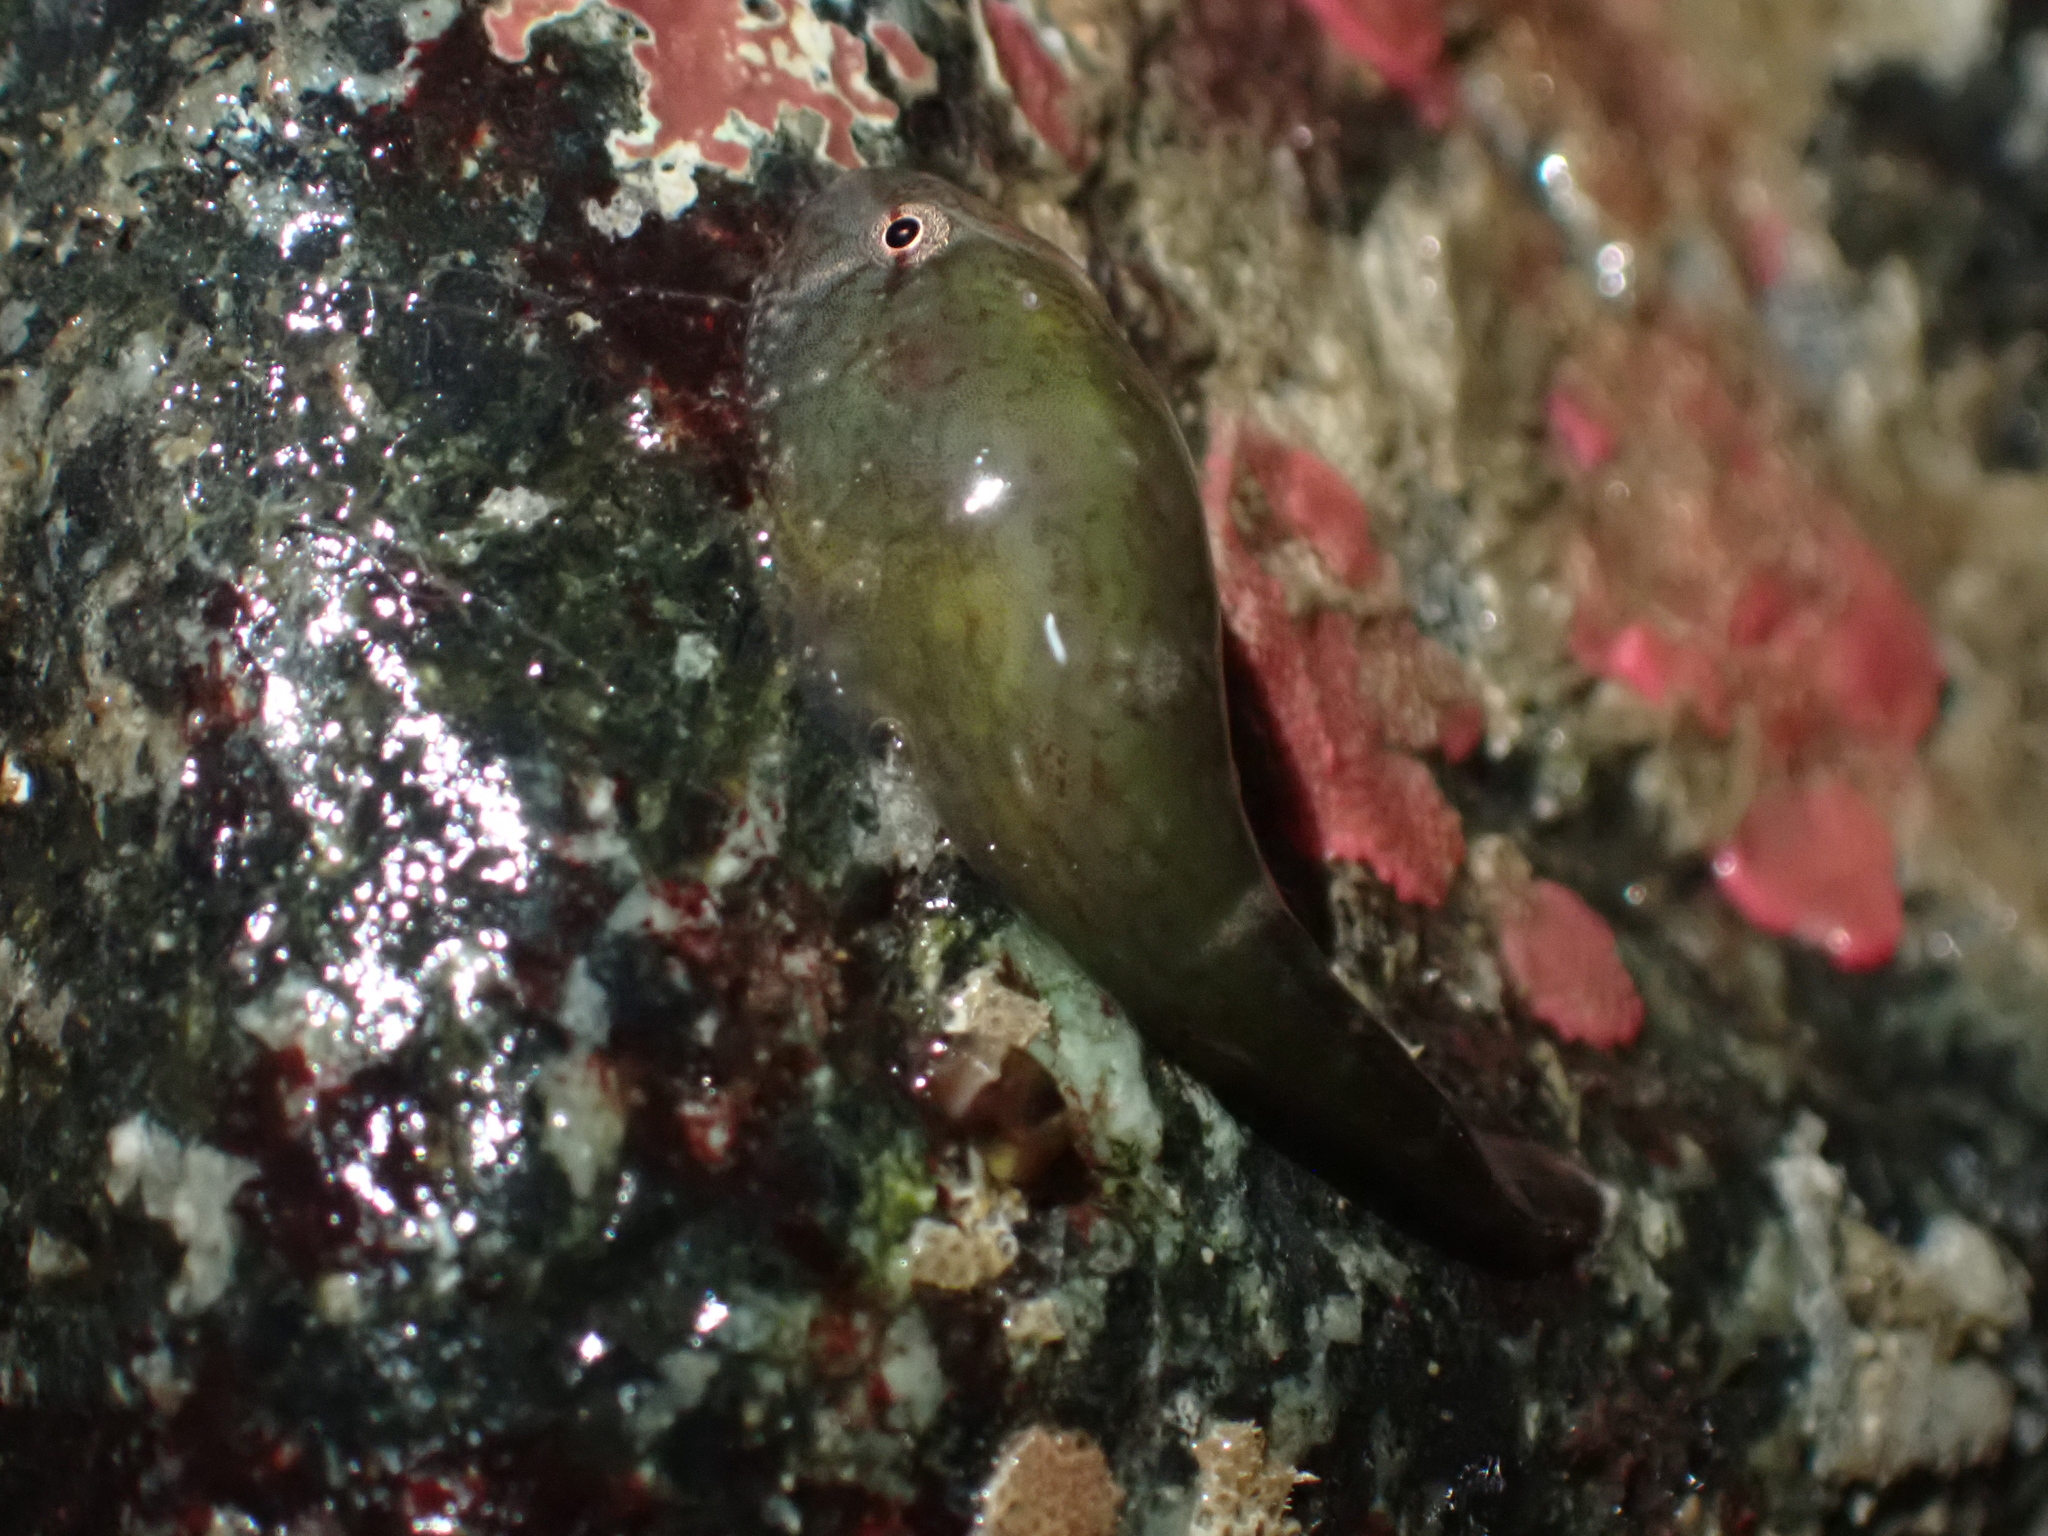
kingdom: Animalia
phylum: Chordata
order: Gobiesociformes
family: Gobiesocidae
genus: Gobiesox
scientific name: Gobiesox maeandricus
